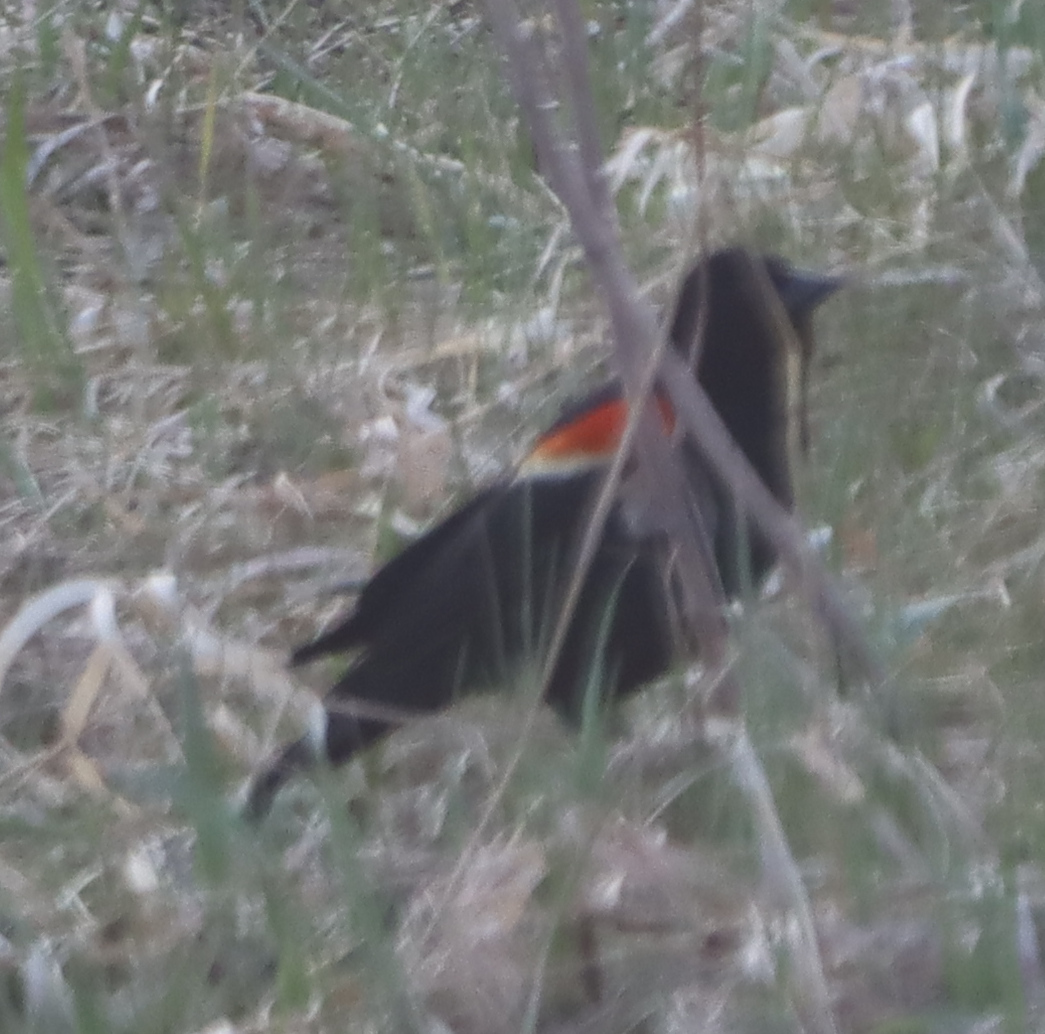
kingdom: Animalia
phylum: Chordata
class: Aves
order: Passeriformes
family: Icteridae
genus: Agelaius
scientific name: Agelaius phoeniceus
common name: Red-winged blackbird
